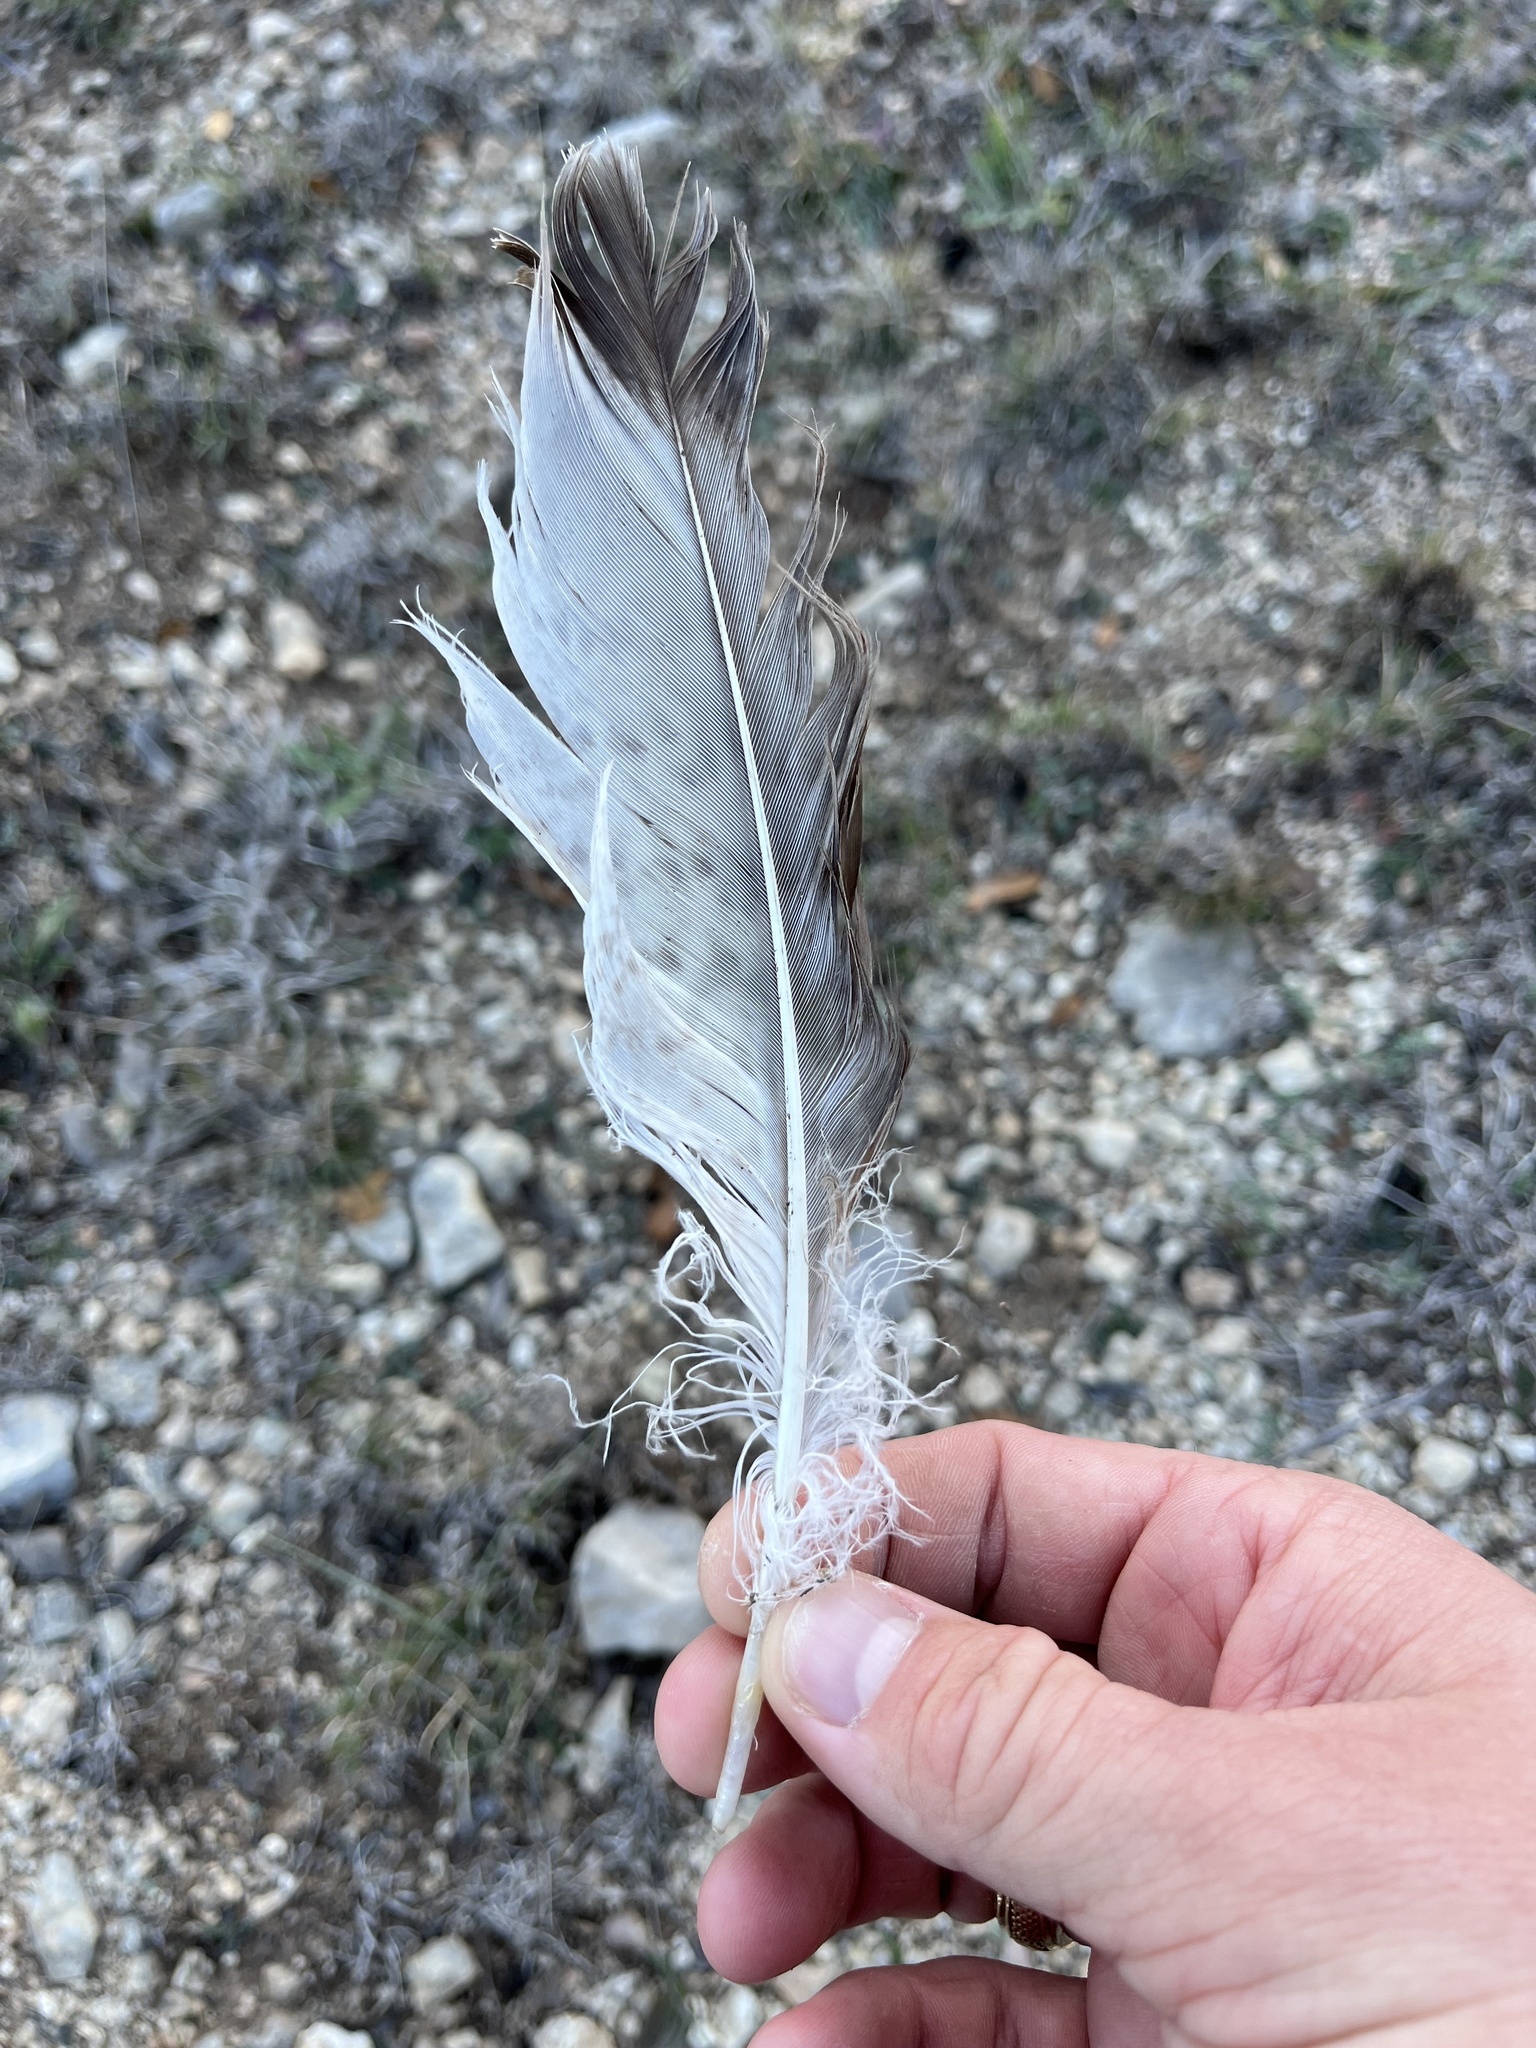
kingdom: Animalia
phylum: Chordata
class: Aves
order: Accipitriformes
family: Accipitridae
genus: Buteo
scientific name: Buteo jamaicensis
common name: Red-tailed hawk
